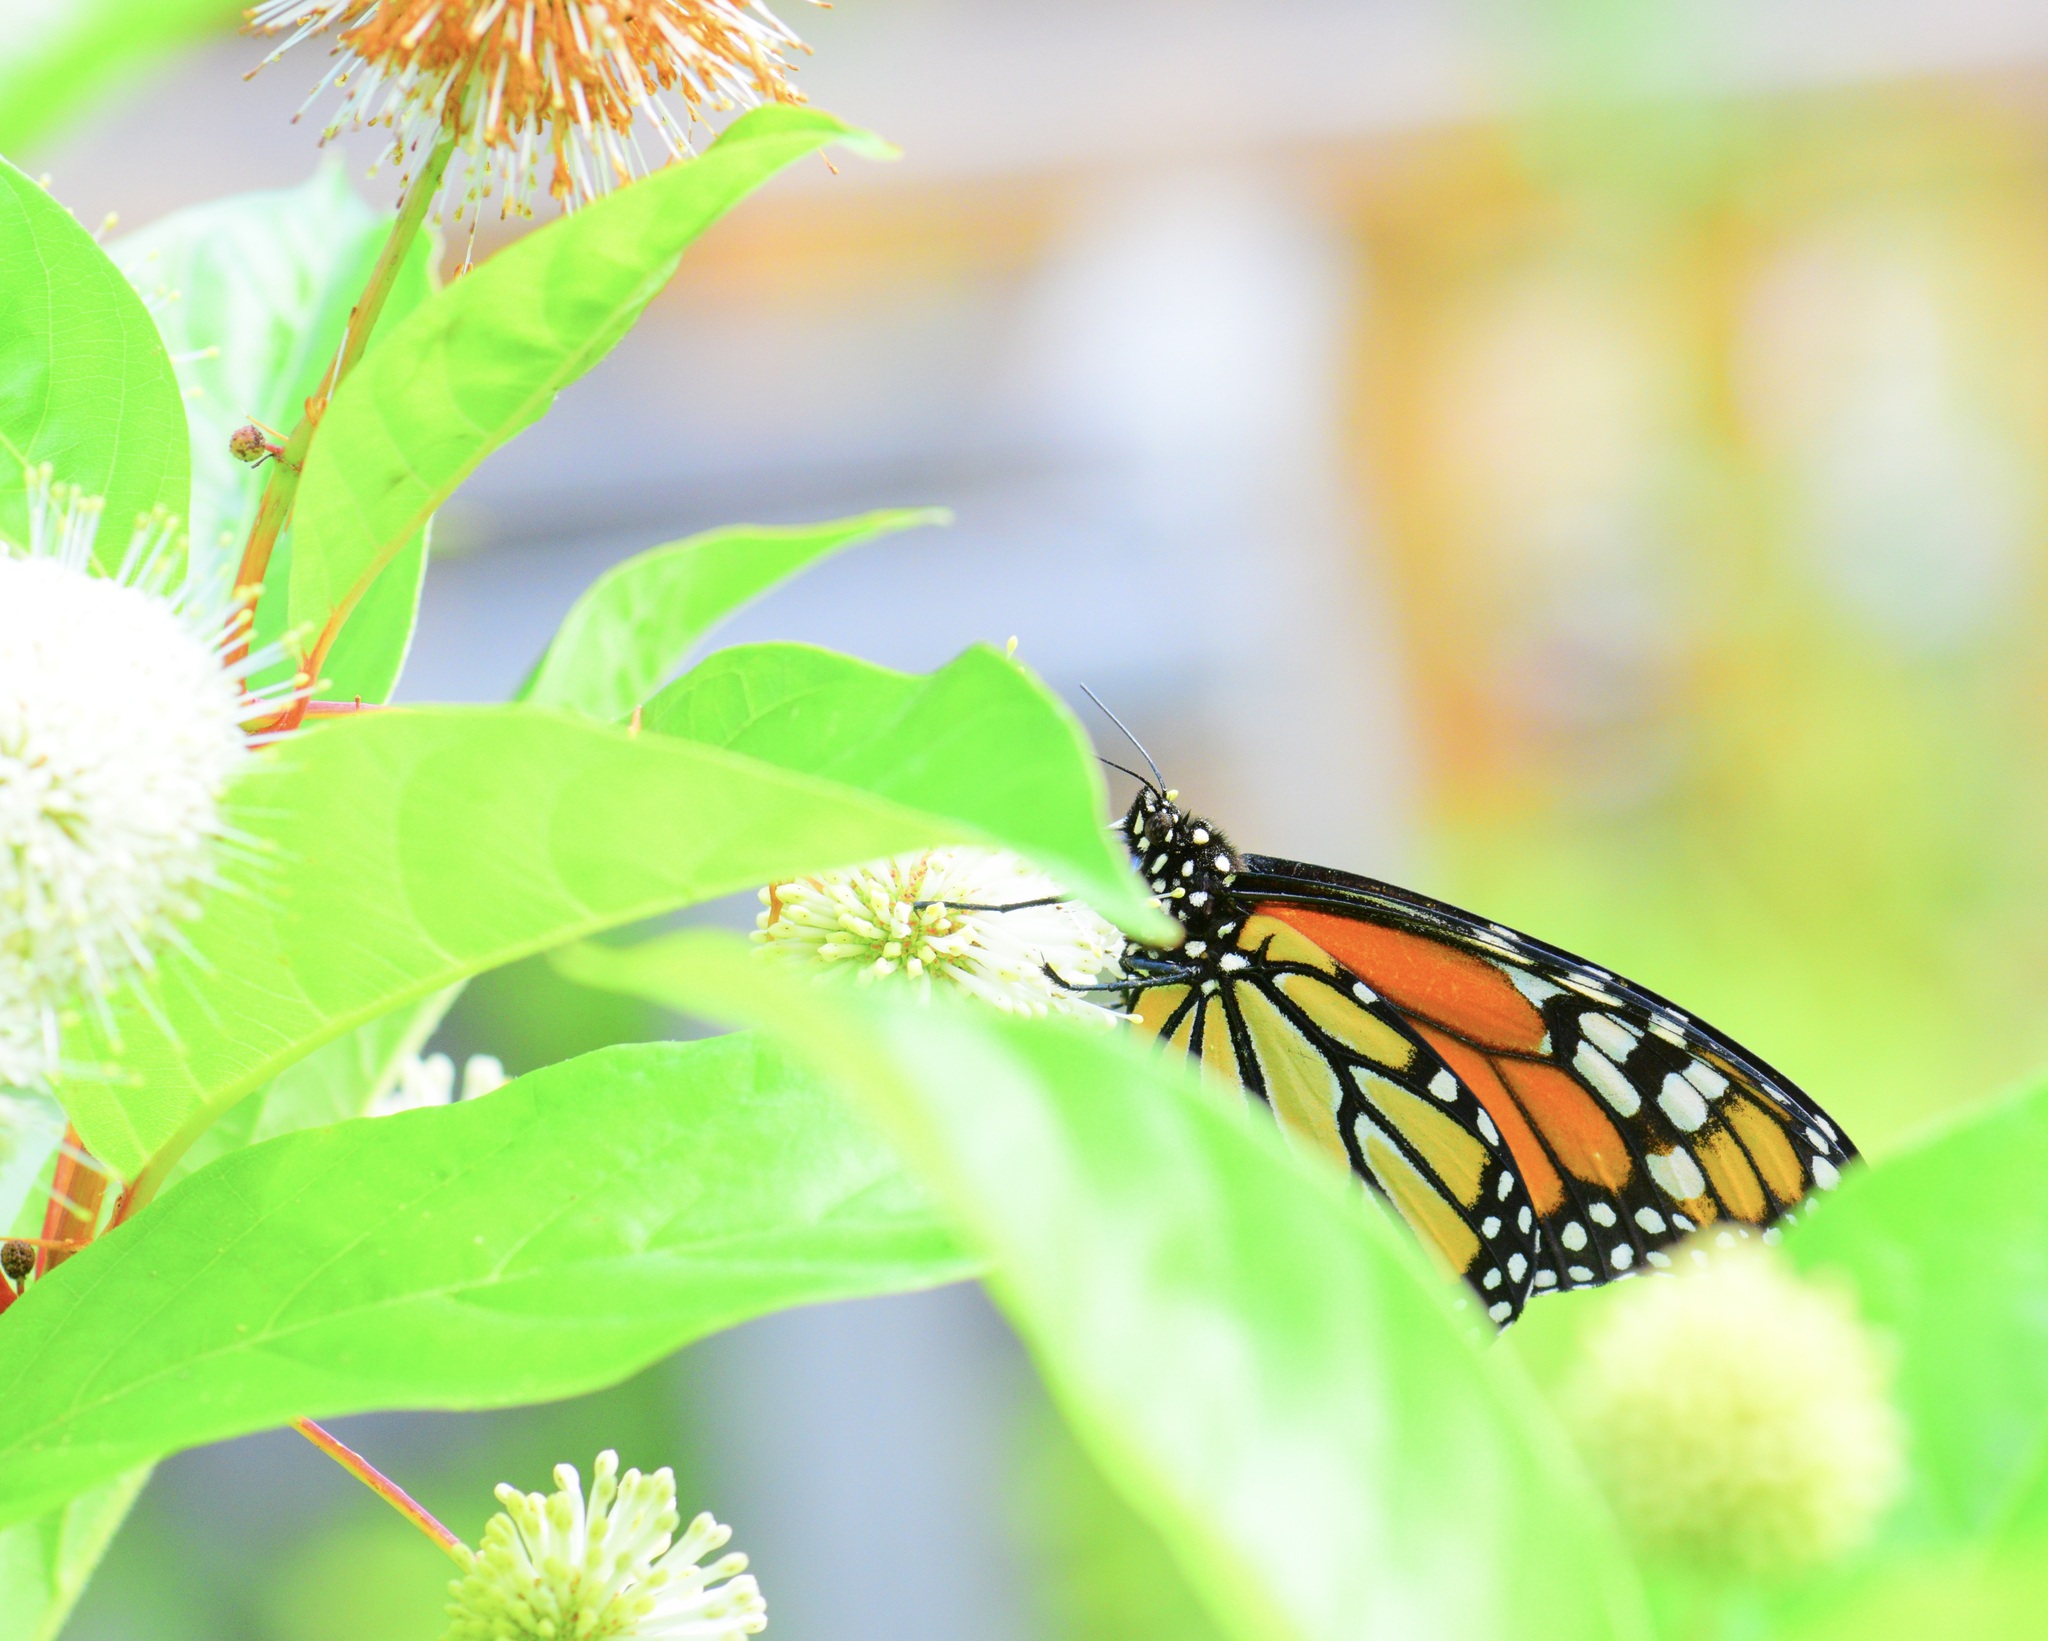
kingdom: Animalia
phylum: Arthropoda
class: Insecta
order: Lepidoptera
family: Nymphalidae
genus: Danaus
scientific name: Danaus plexippus
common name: Monarch
